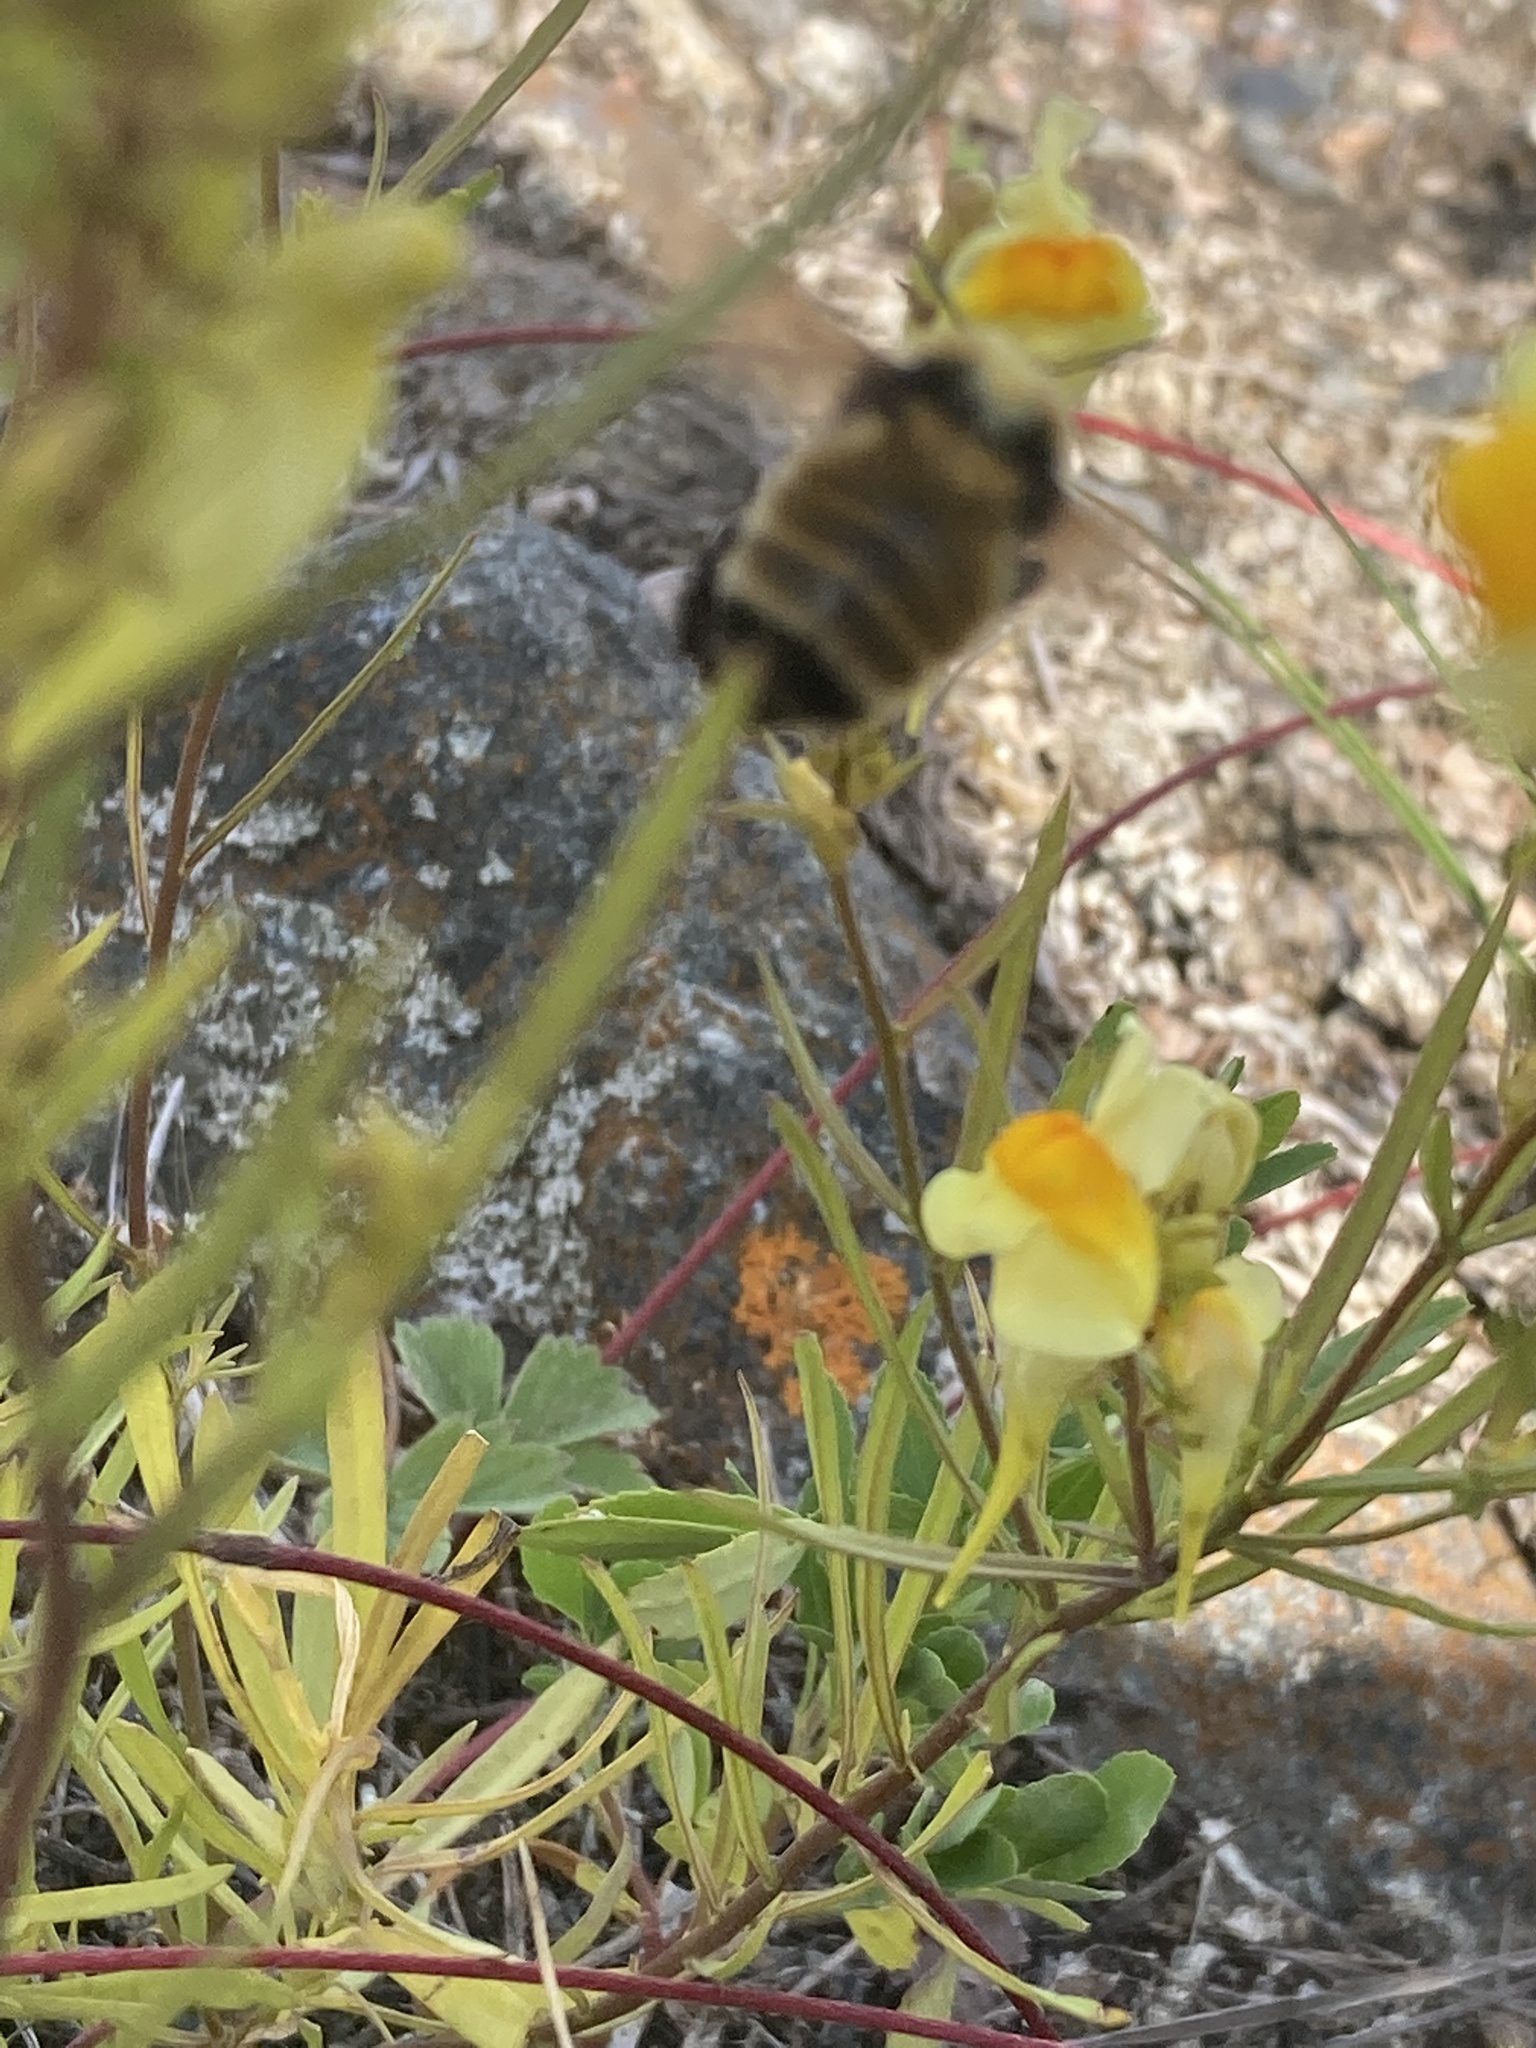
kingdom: Animalia
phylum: Arthropoda
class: Insecta
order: Hymenoptera
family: Apidae
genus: Bombus
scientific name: Bombus borealis
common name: Northern amber bumble bee
